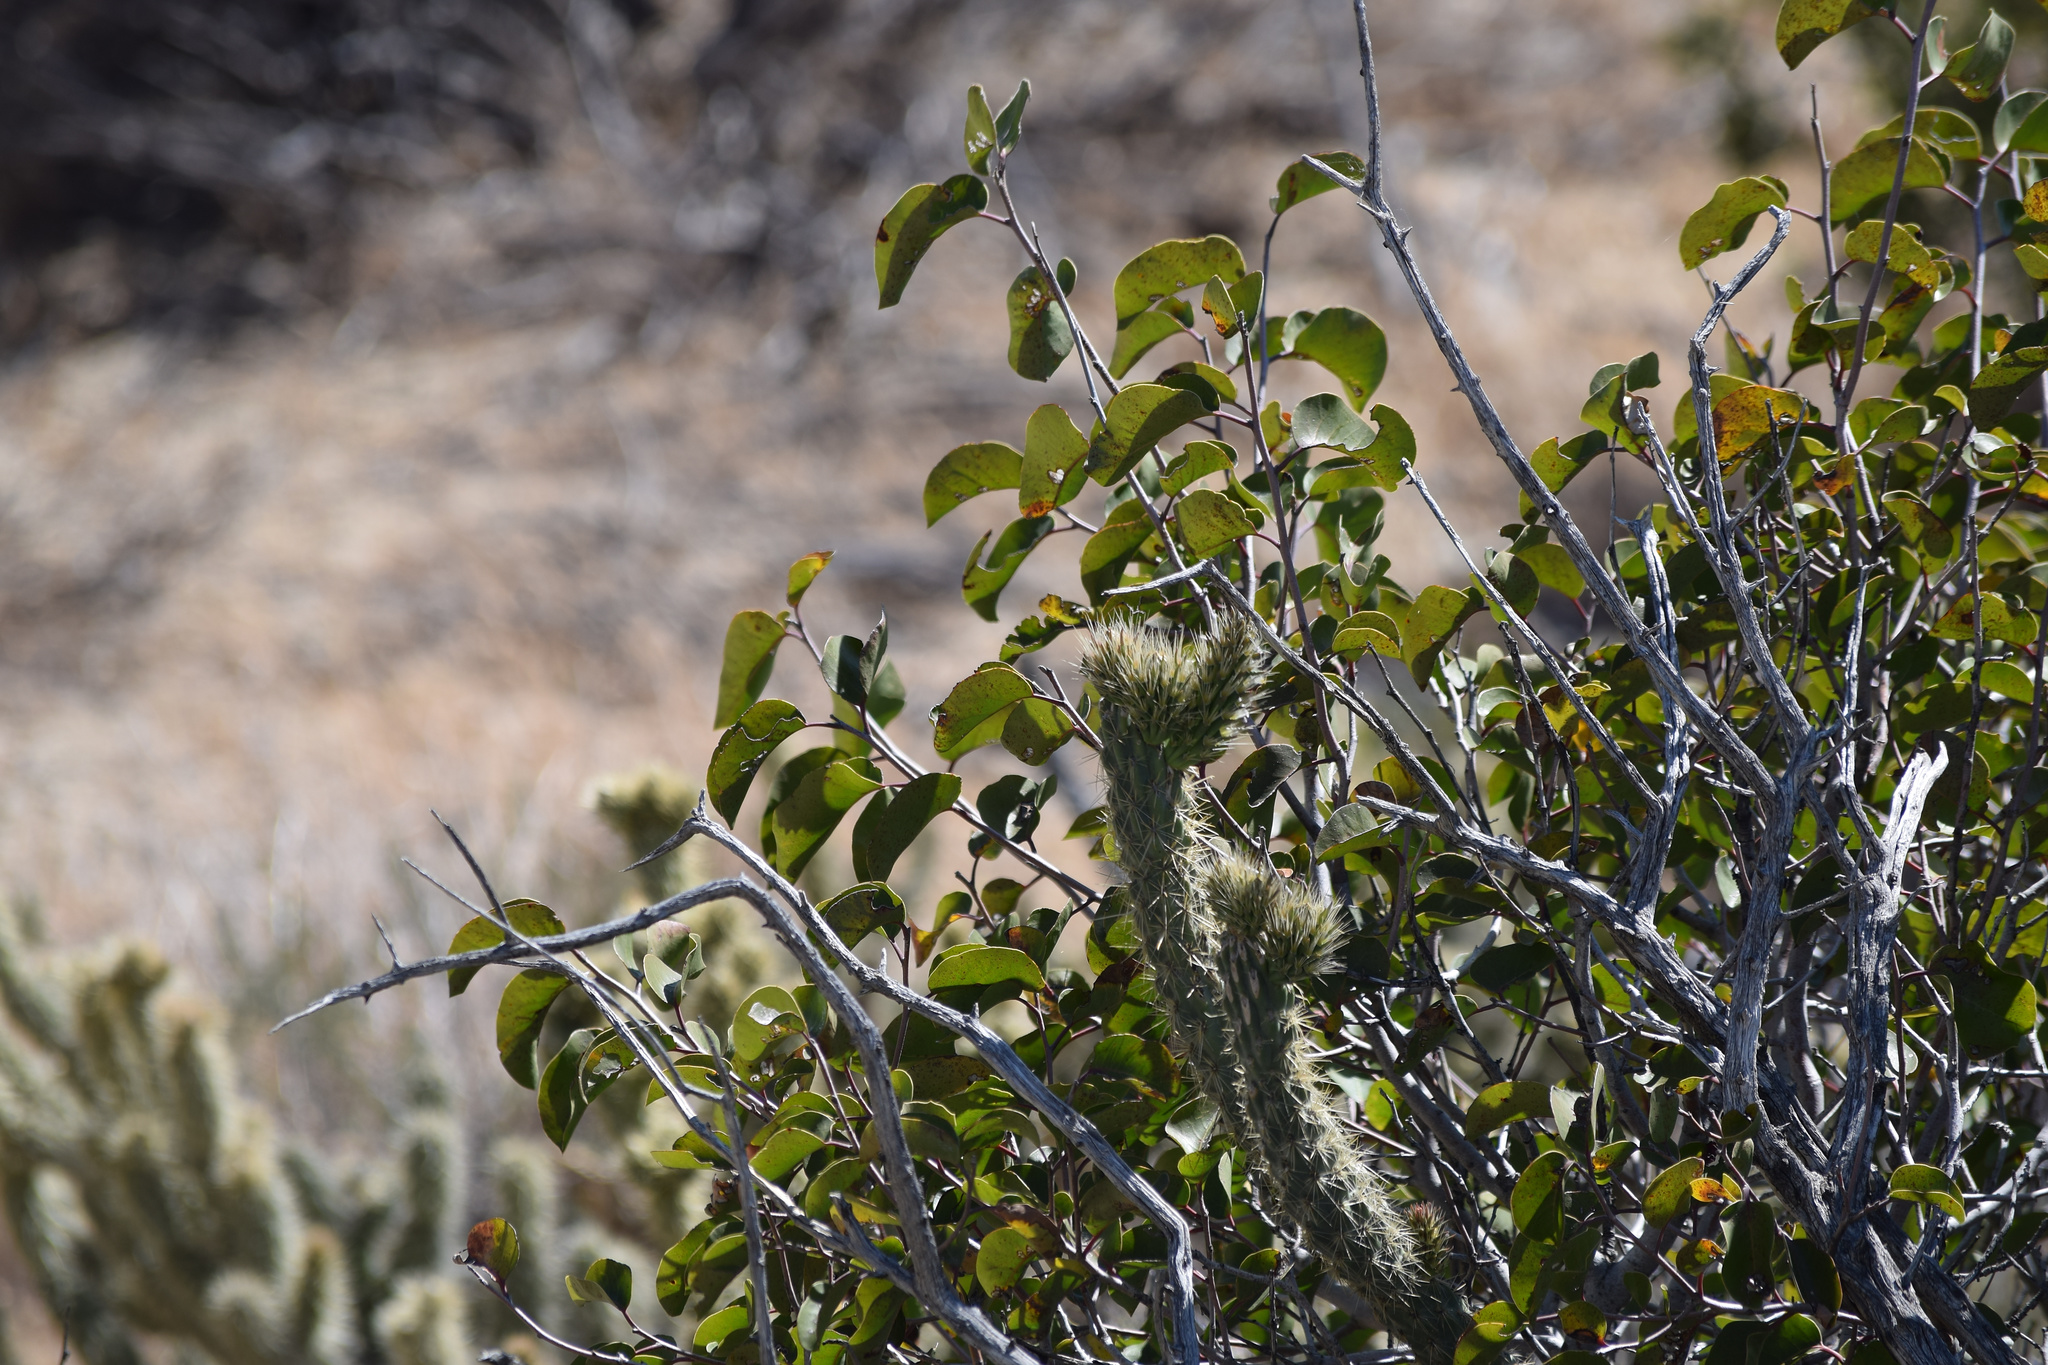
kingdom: Plantae
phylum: Tracheophyta
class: Magnoliopsida
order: Sapindales
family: Anacardiaceae
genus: Rhus
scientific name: Rhus ovata
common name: Sugar sumac
